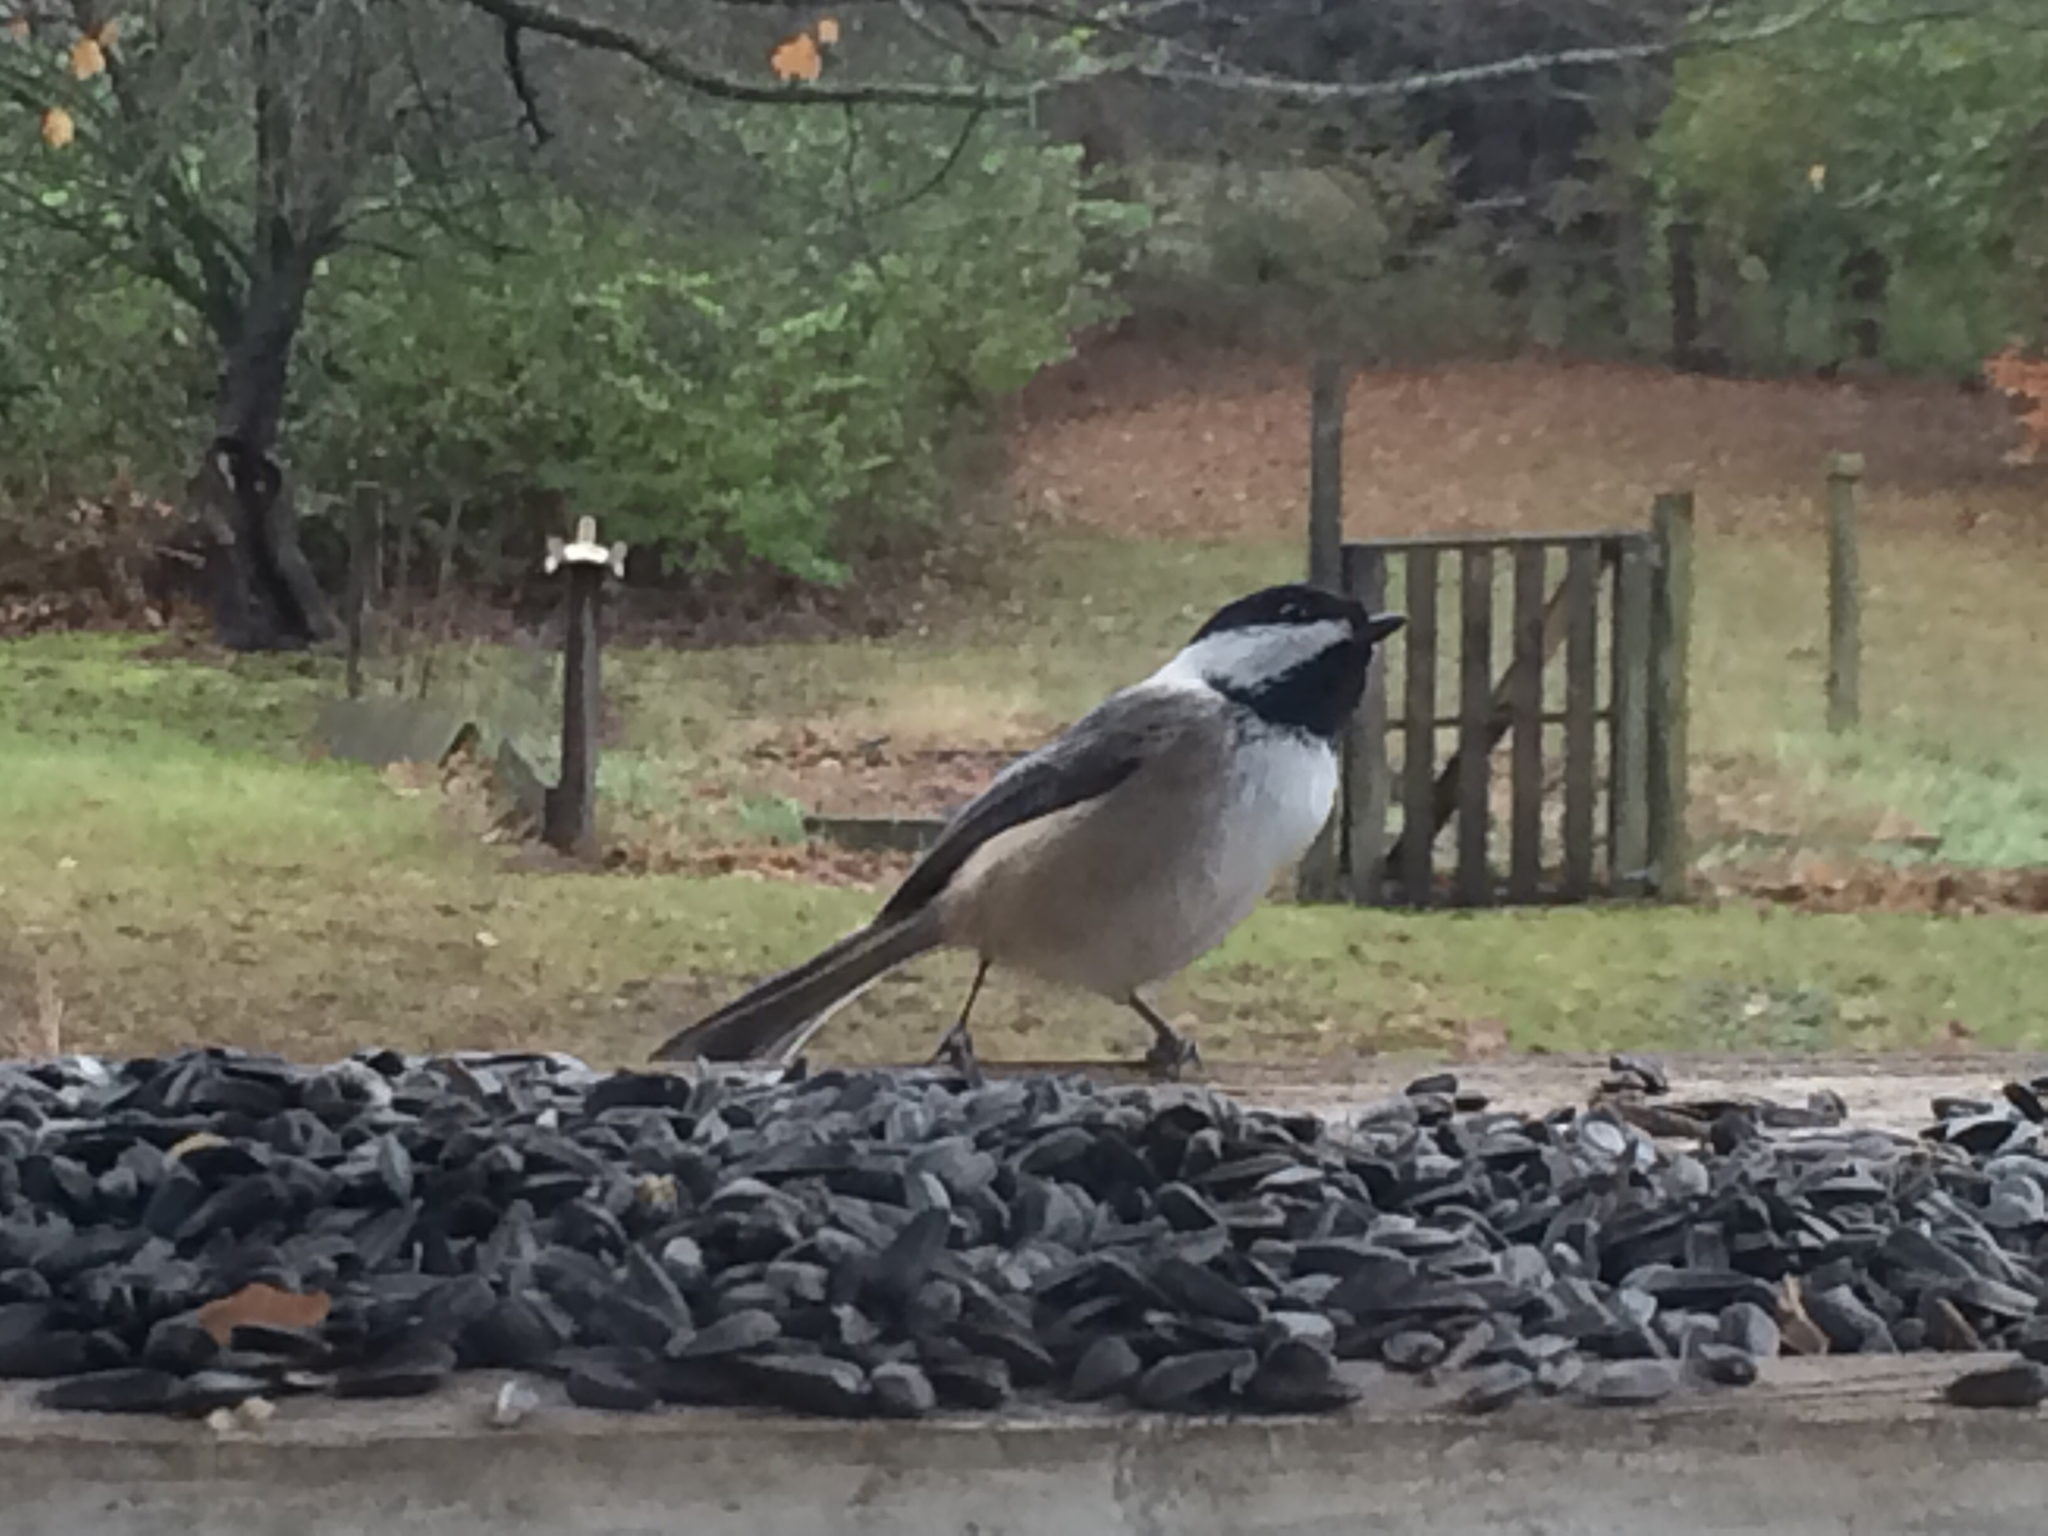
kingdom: Animalia
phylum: Chordata
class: Aves
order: Passeriformes
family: Paridae
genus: Poecile
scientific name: Poecile atricapillus
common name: Black-capped chickadee
